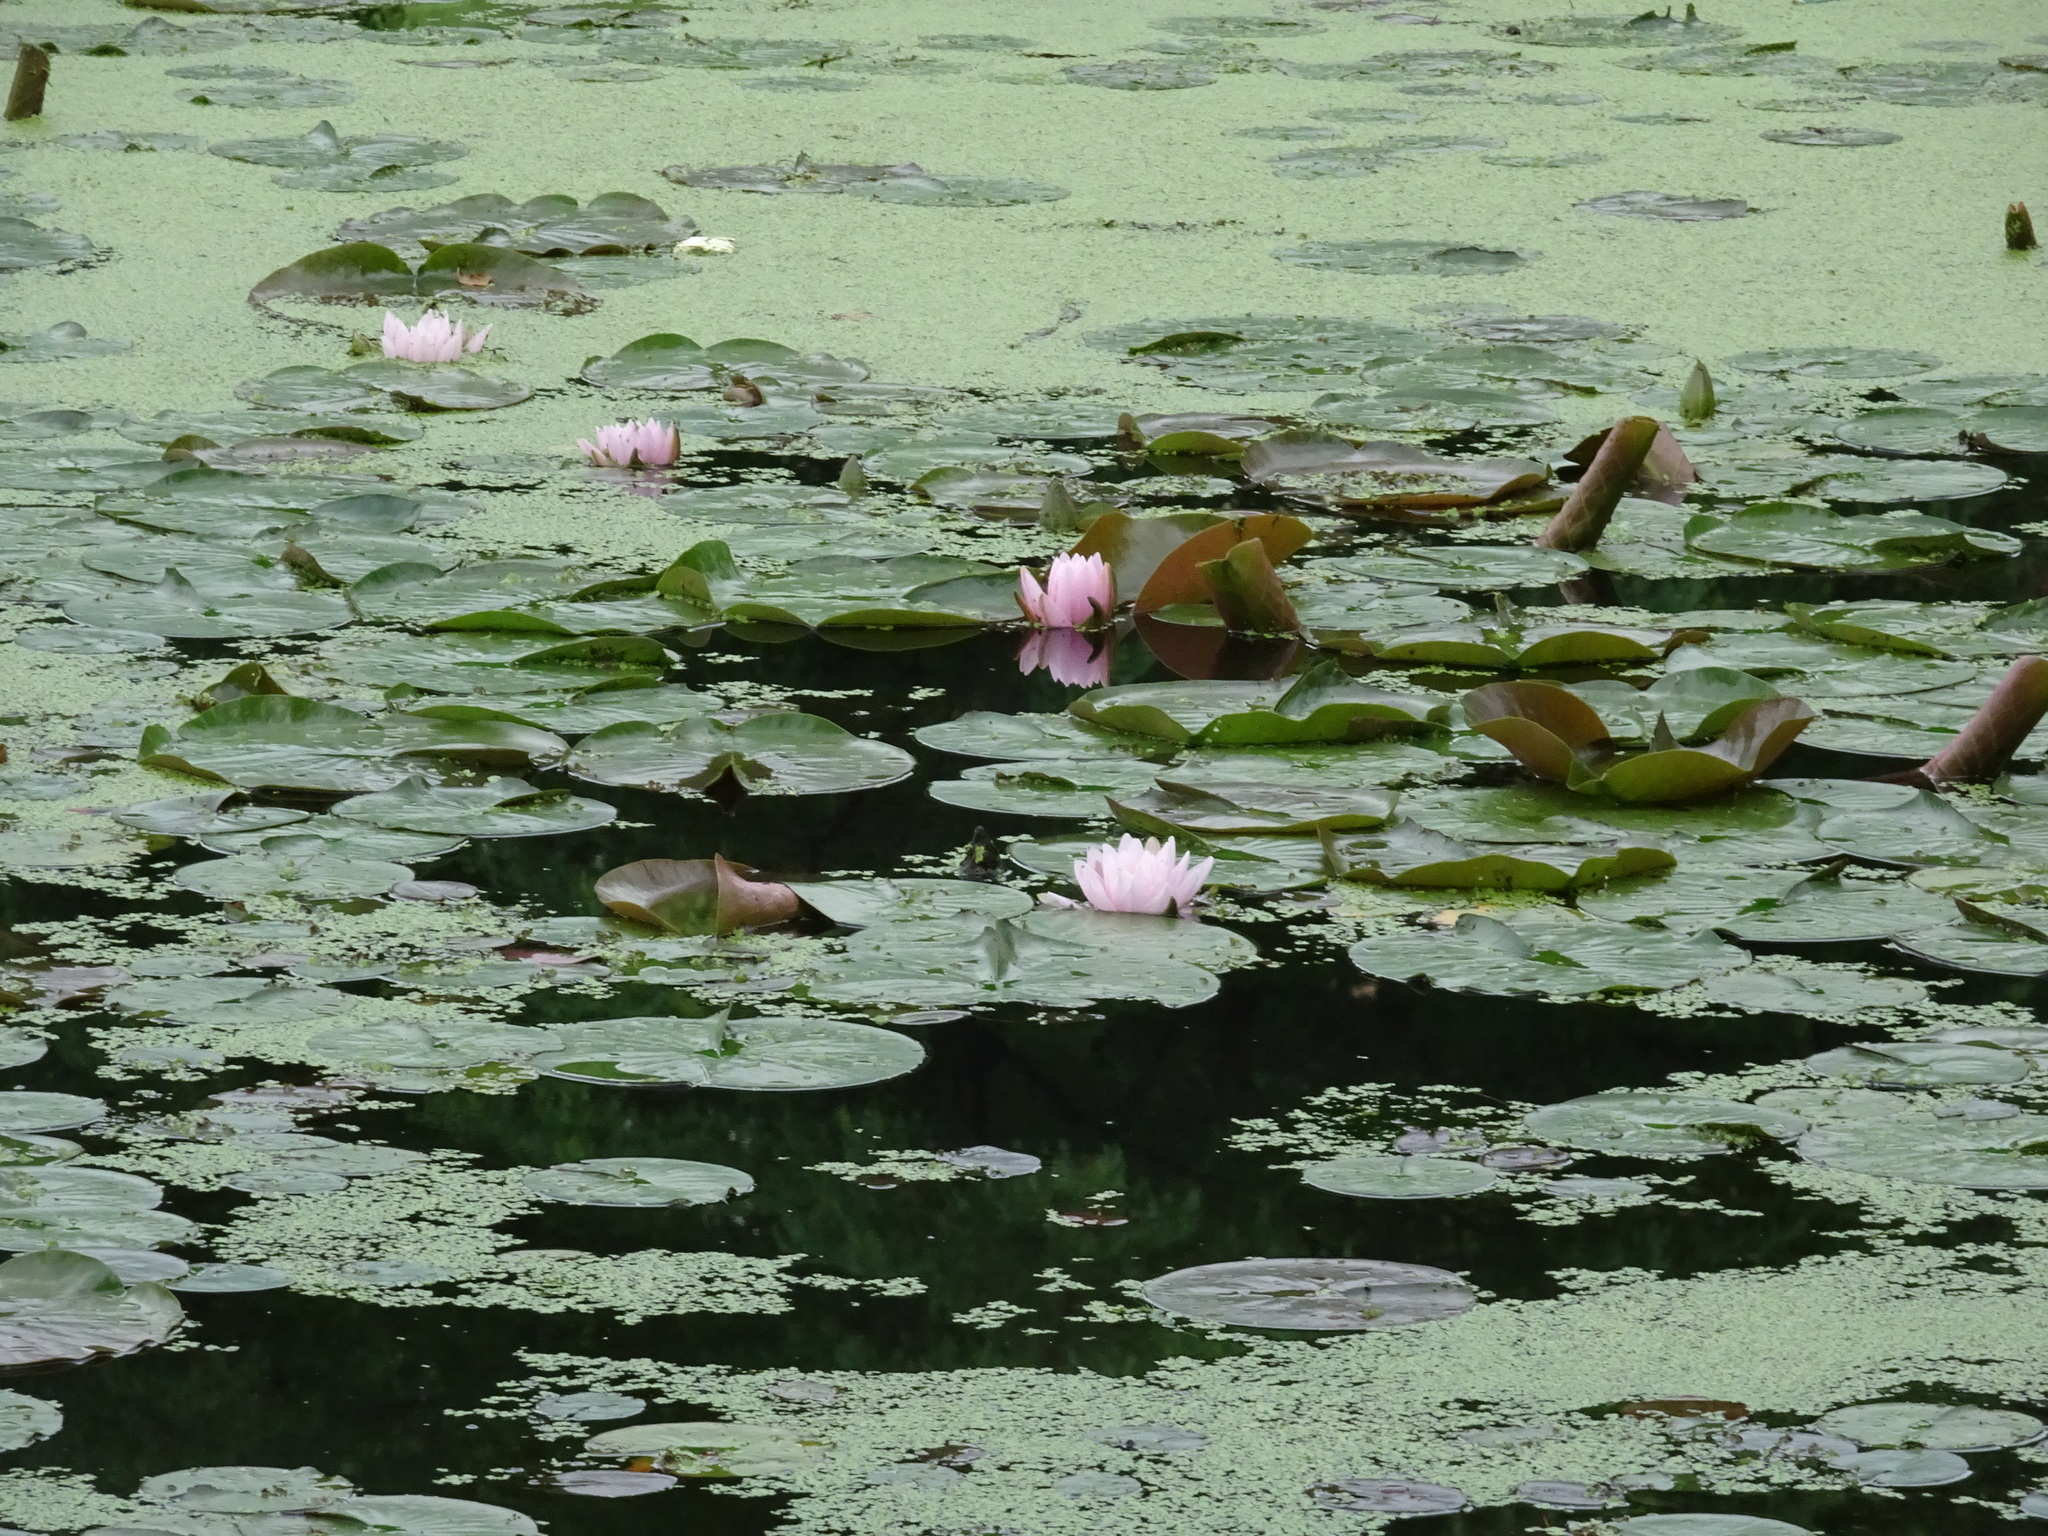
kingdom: Plantae
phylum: Tracheophyta
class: Magnoliopsida
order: Nymphaeales
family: Nymphaeaceae
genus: Nymphaea
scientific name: Nymphaea odorata
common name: Fragrant water-lily
